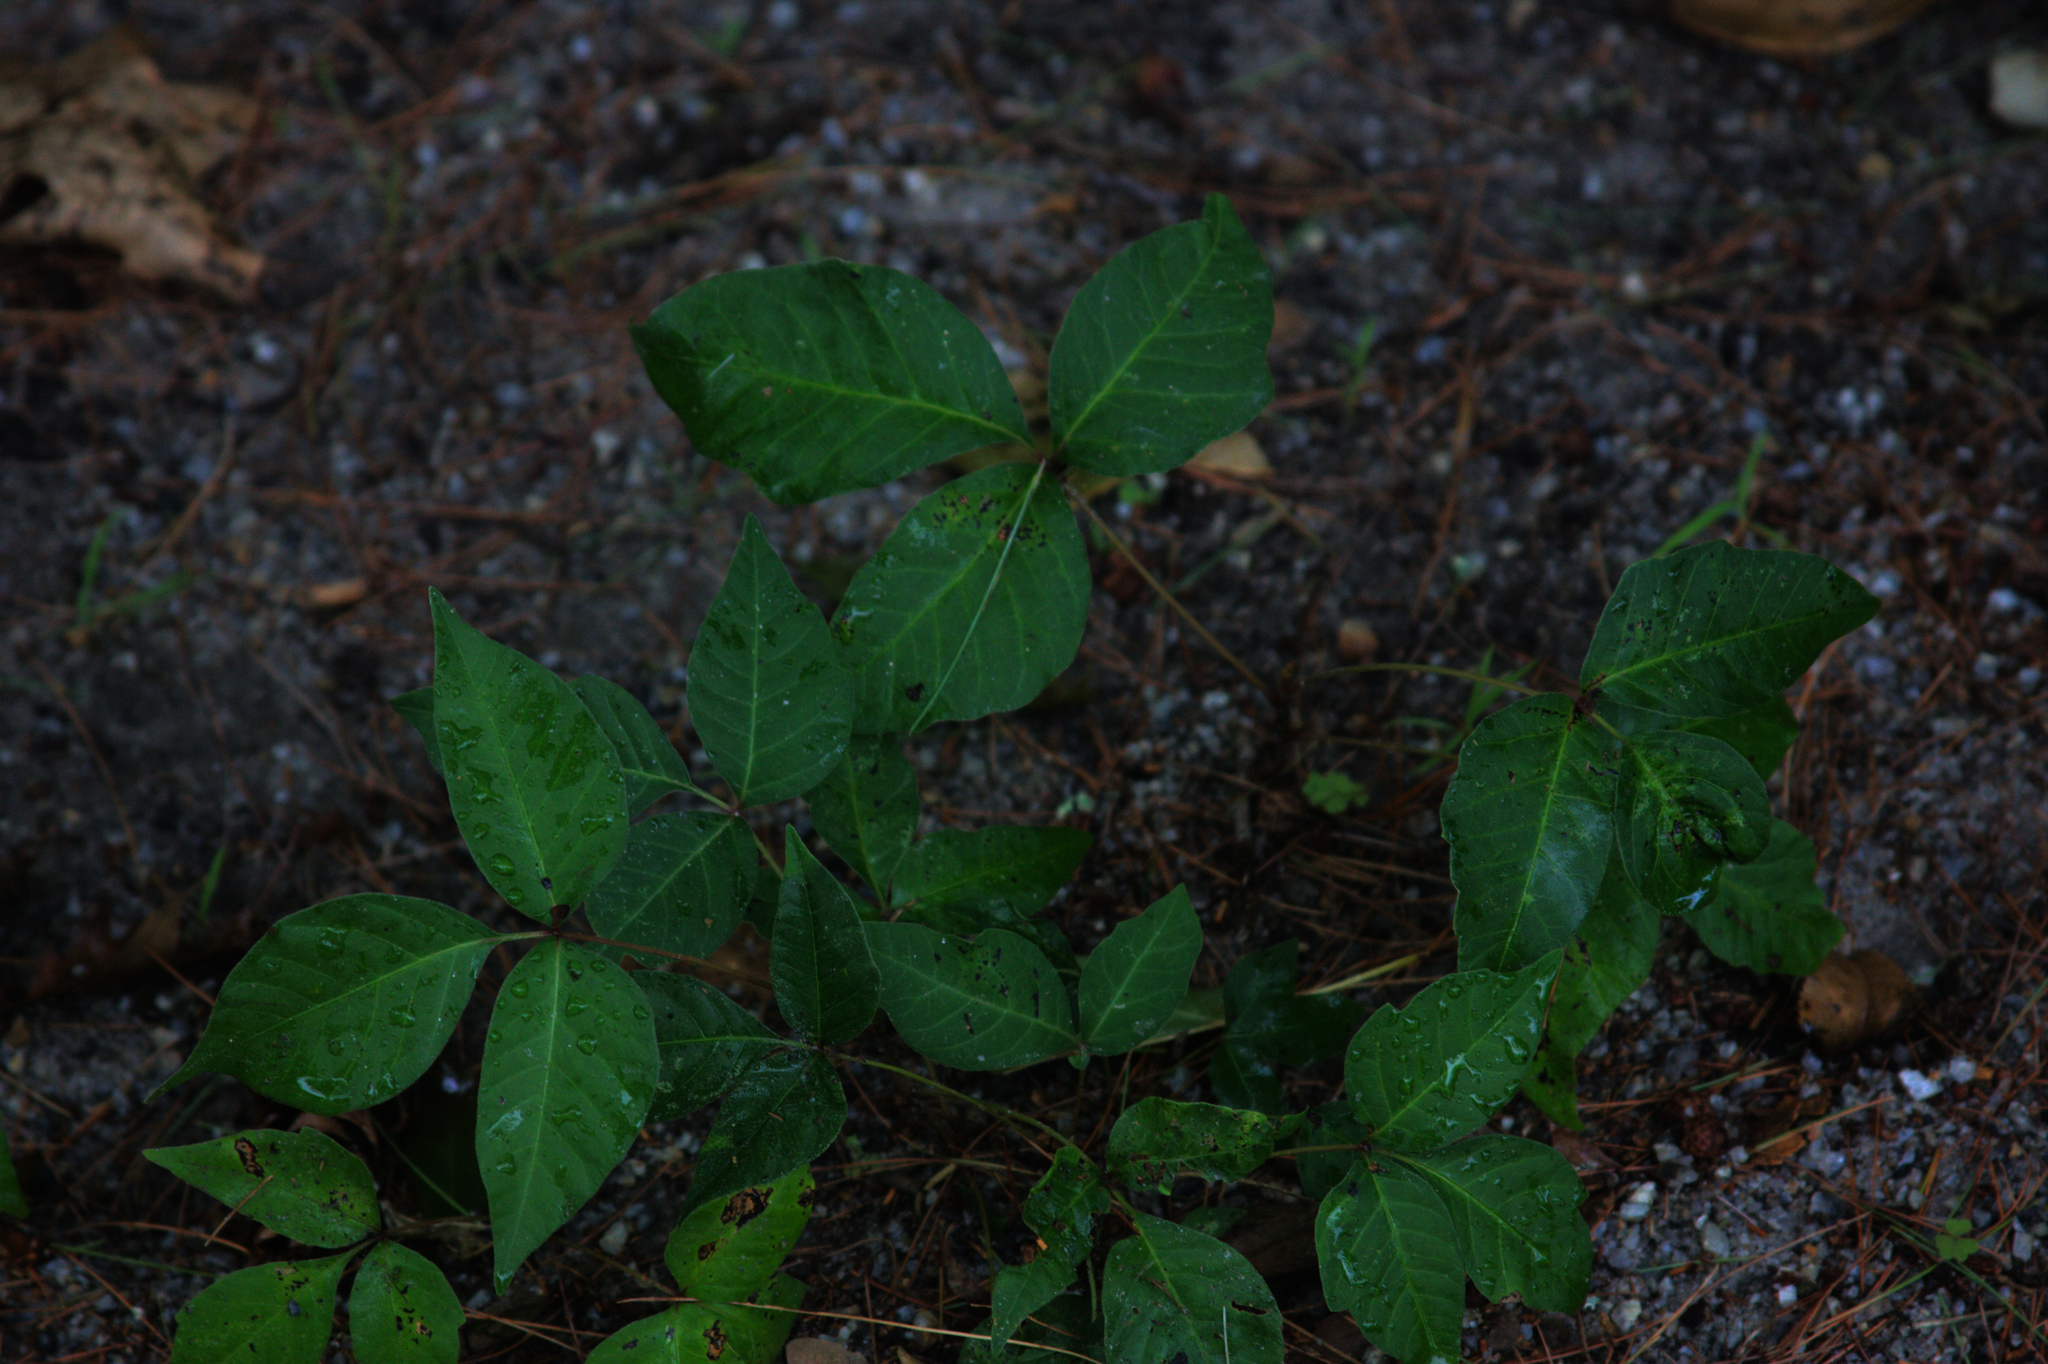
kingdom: Plantae
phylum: Tracheophyta
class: Magnoliopsida
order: Sapindales
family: Anacardiaceae
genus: Toxicodendron
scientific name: Toxicodendron radicans
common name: Poison ivy
